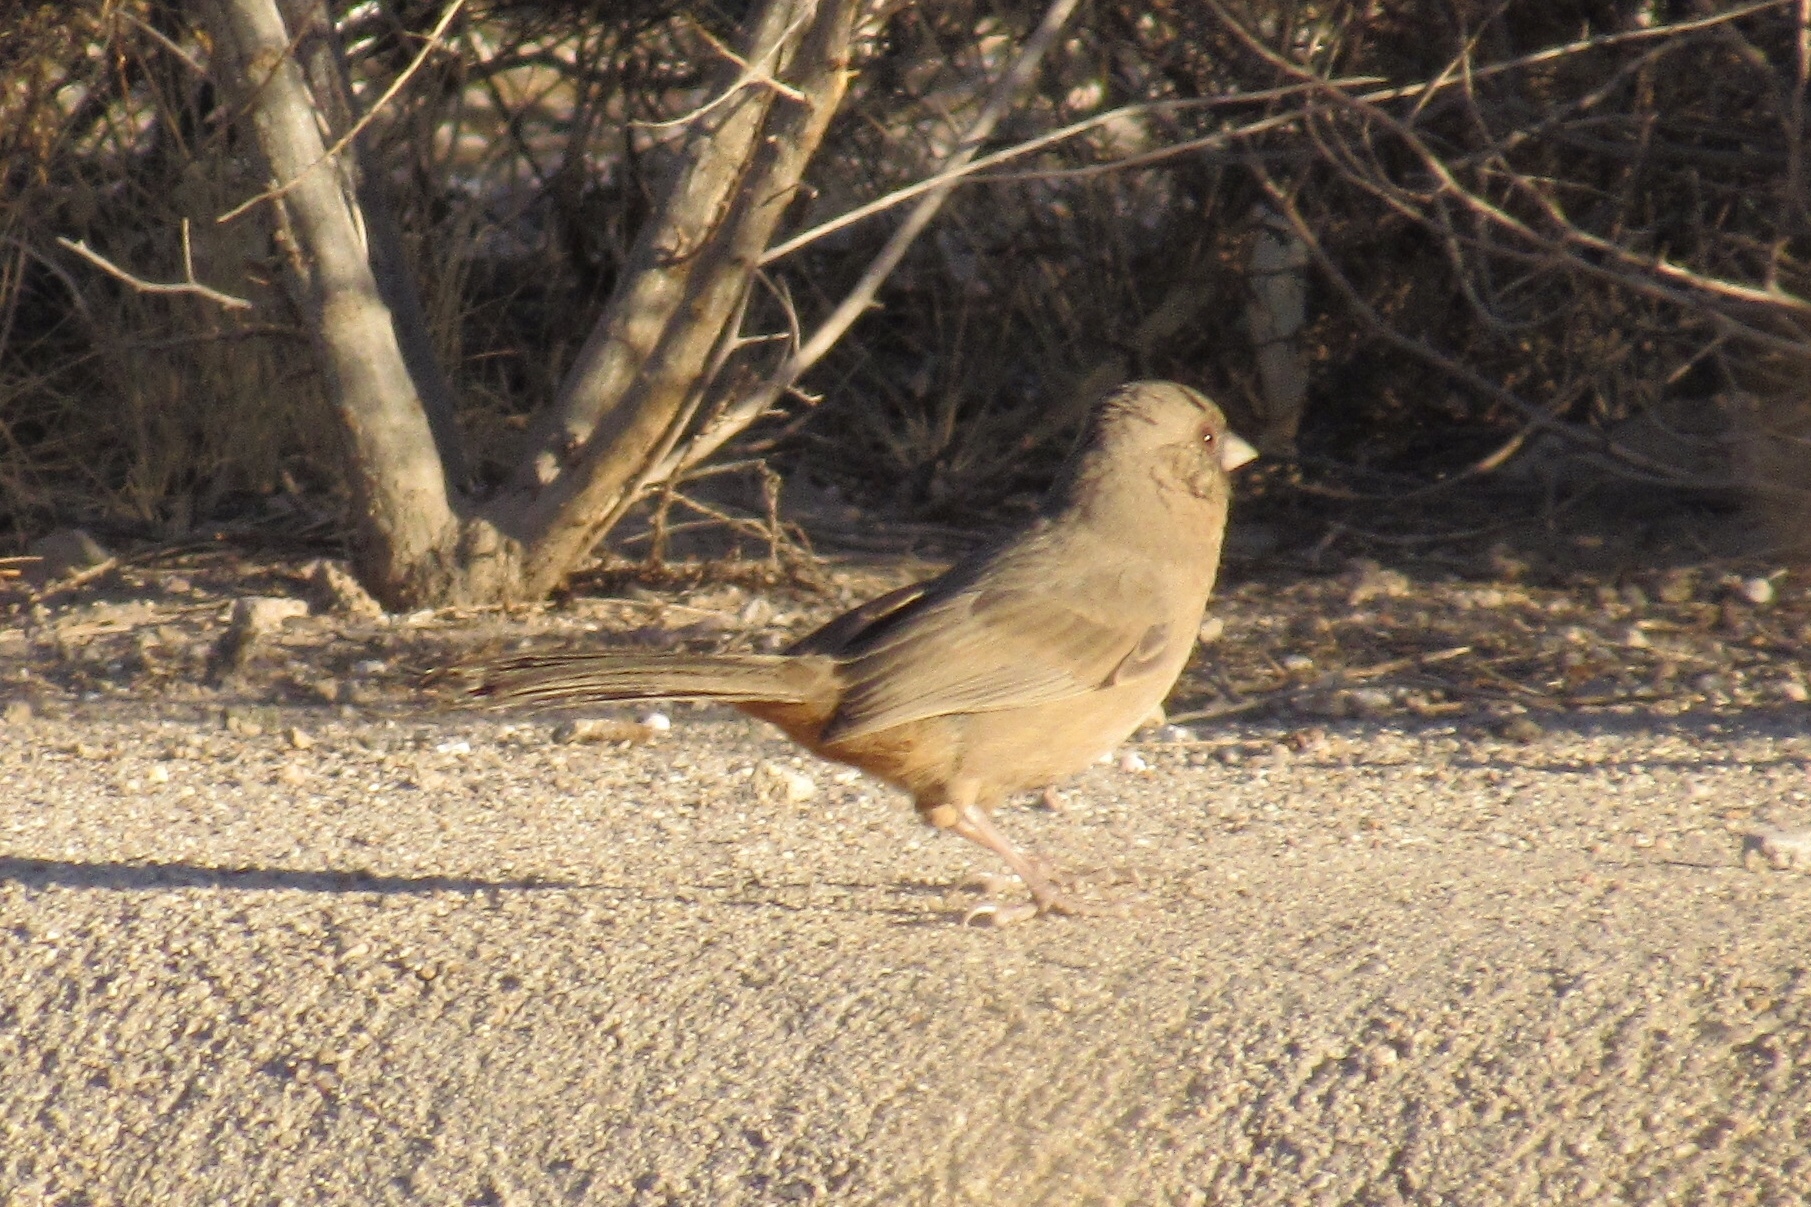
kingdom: Animalia
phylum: Chordata
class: Aves
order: Passeriformes
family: Passerellidae
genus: Melozone
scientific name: Melozone aberti
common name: Abert's towhee
